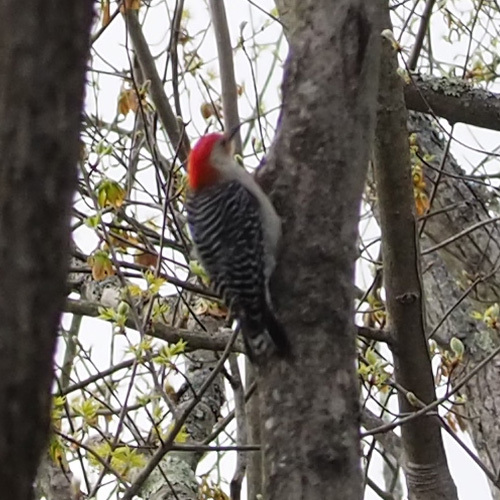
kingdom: Animalia
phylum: Chordata
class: Aves
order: Piciformes
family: Picidae
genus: Melanerpes
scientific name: Melanerpes carolinus
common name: Red-bellied woodpecker
